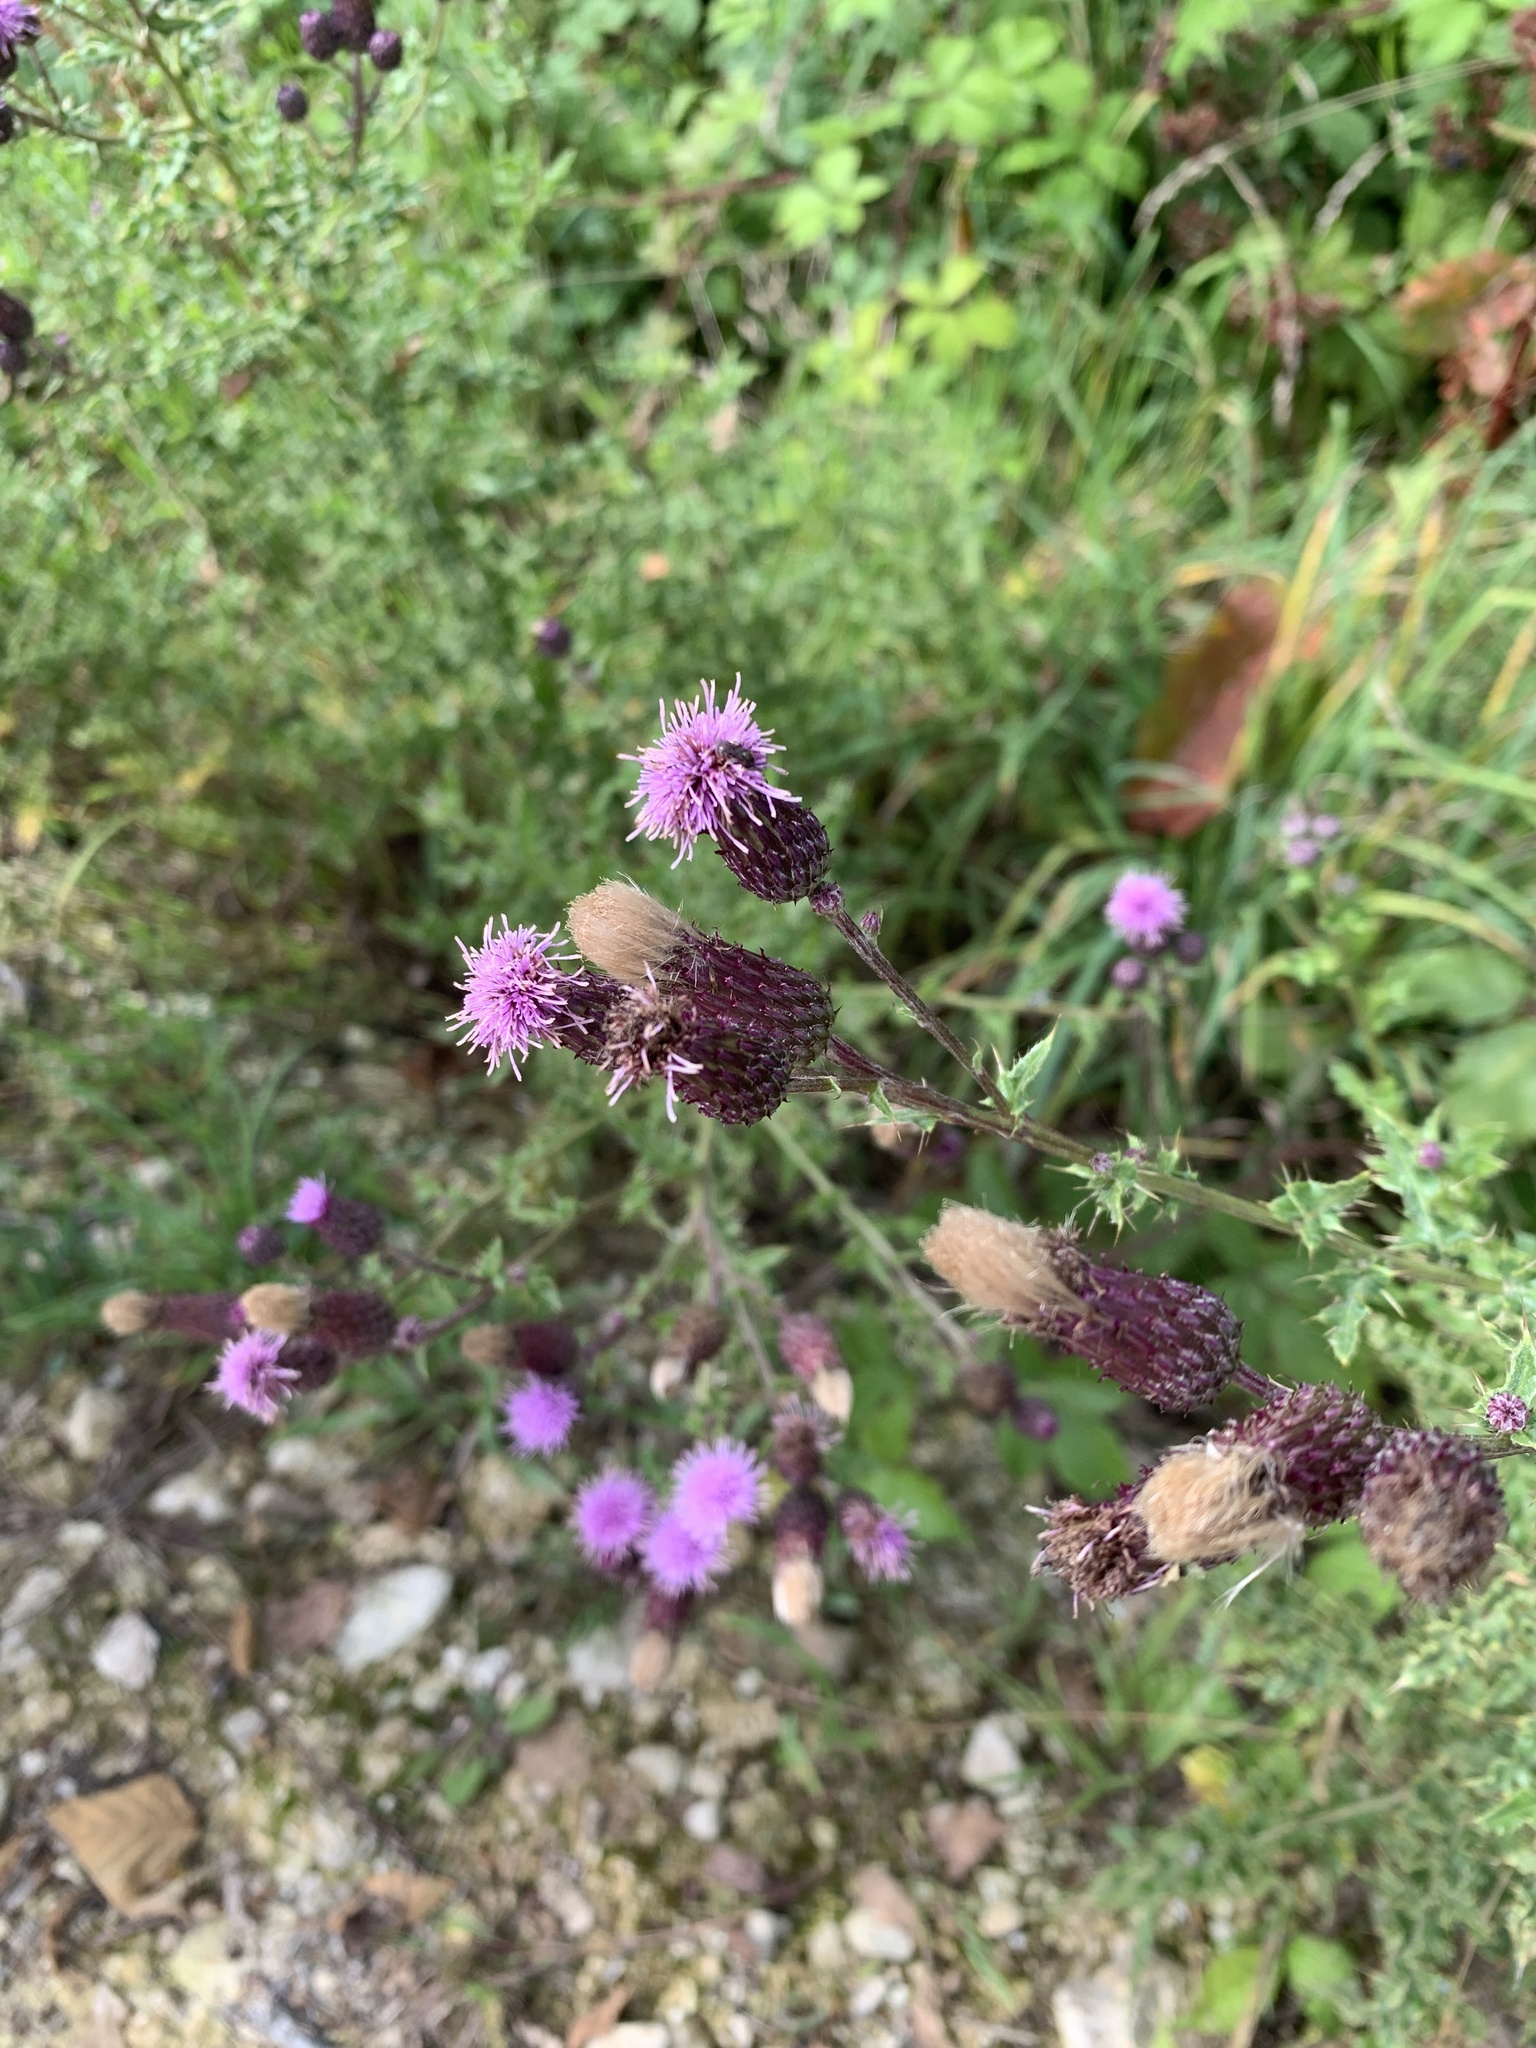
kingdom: Plantae
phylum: Tracheophyta
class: Magnoliopsida
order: Asterales
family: Asteraceae
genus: Cirsium
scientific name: Cirsium arvense
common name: Creeping thistle
